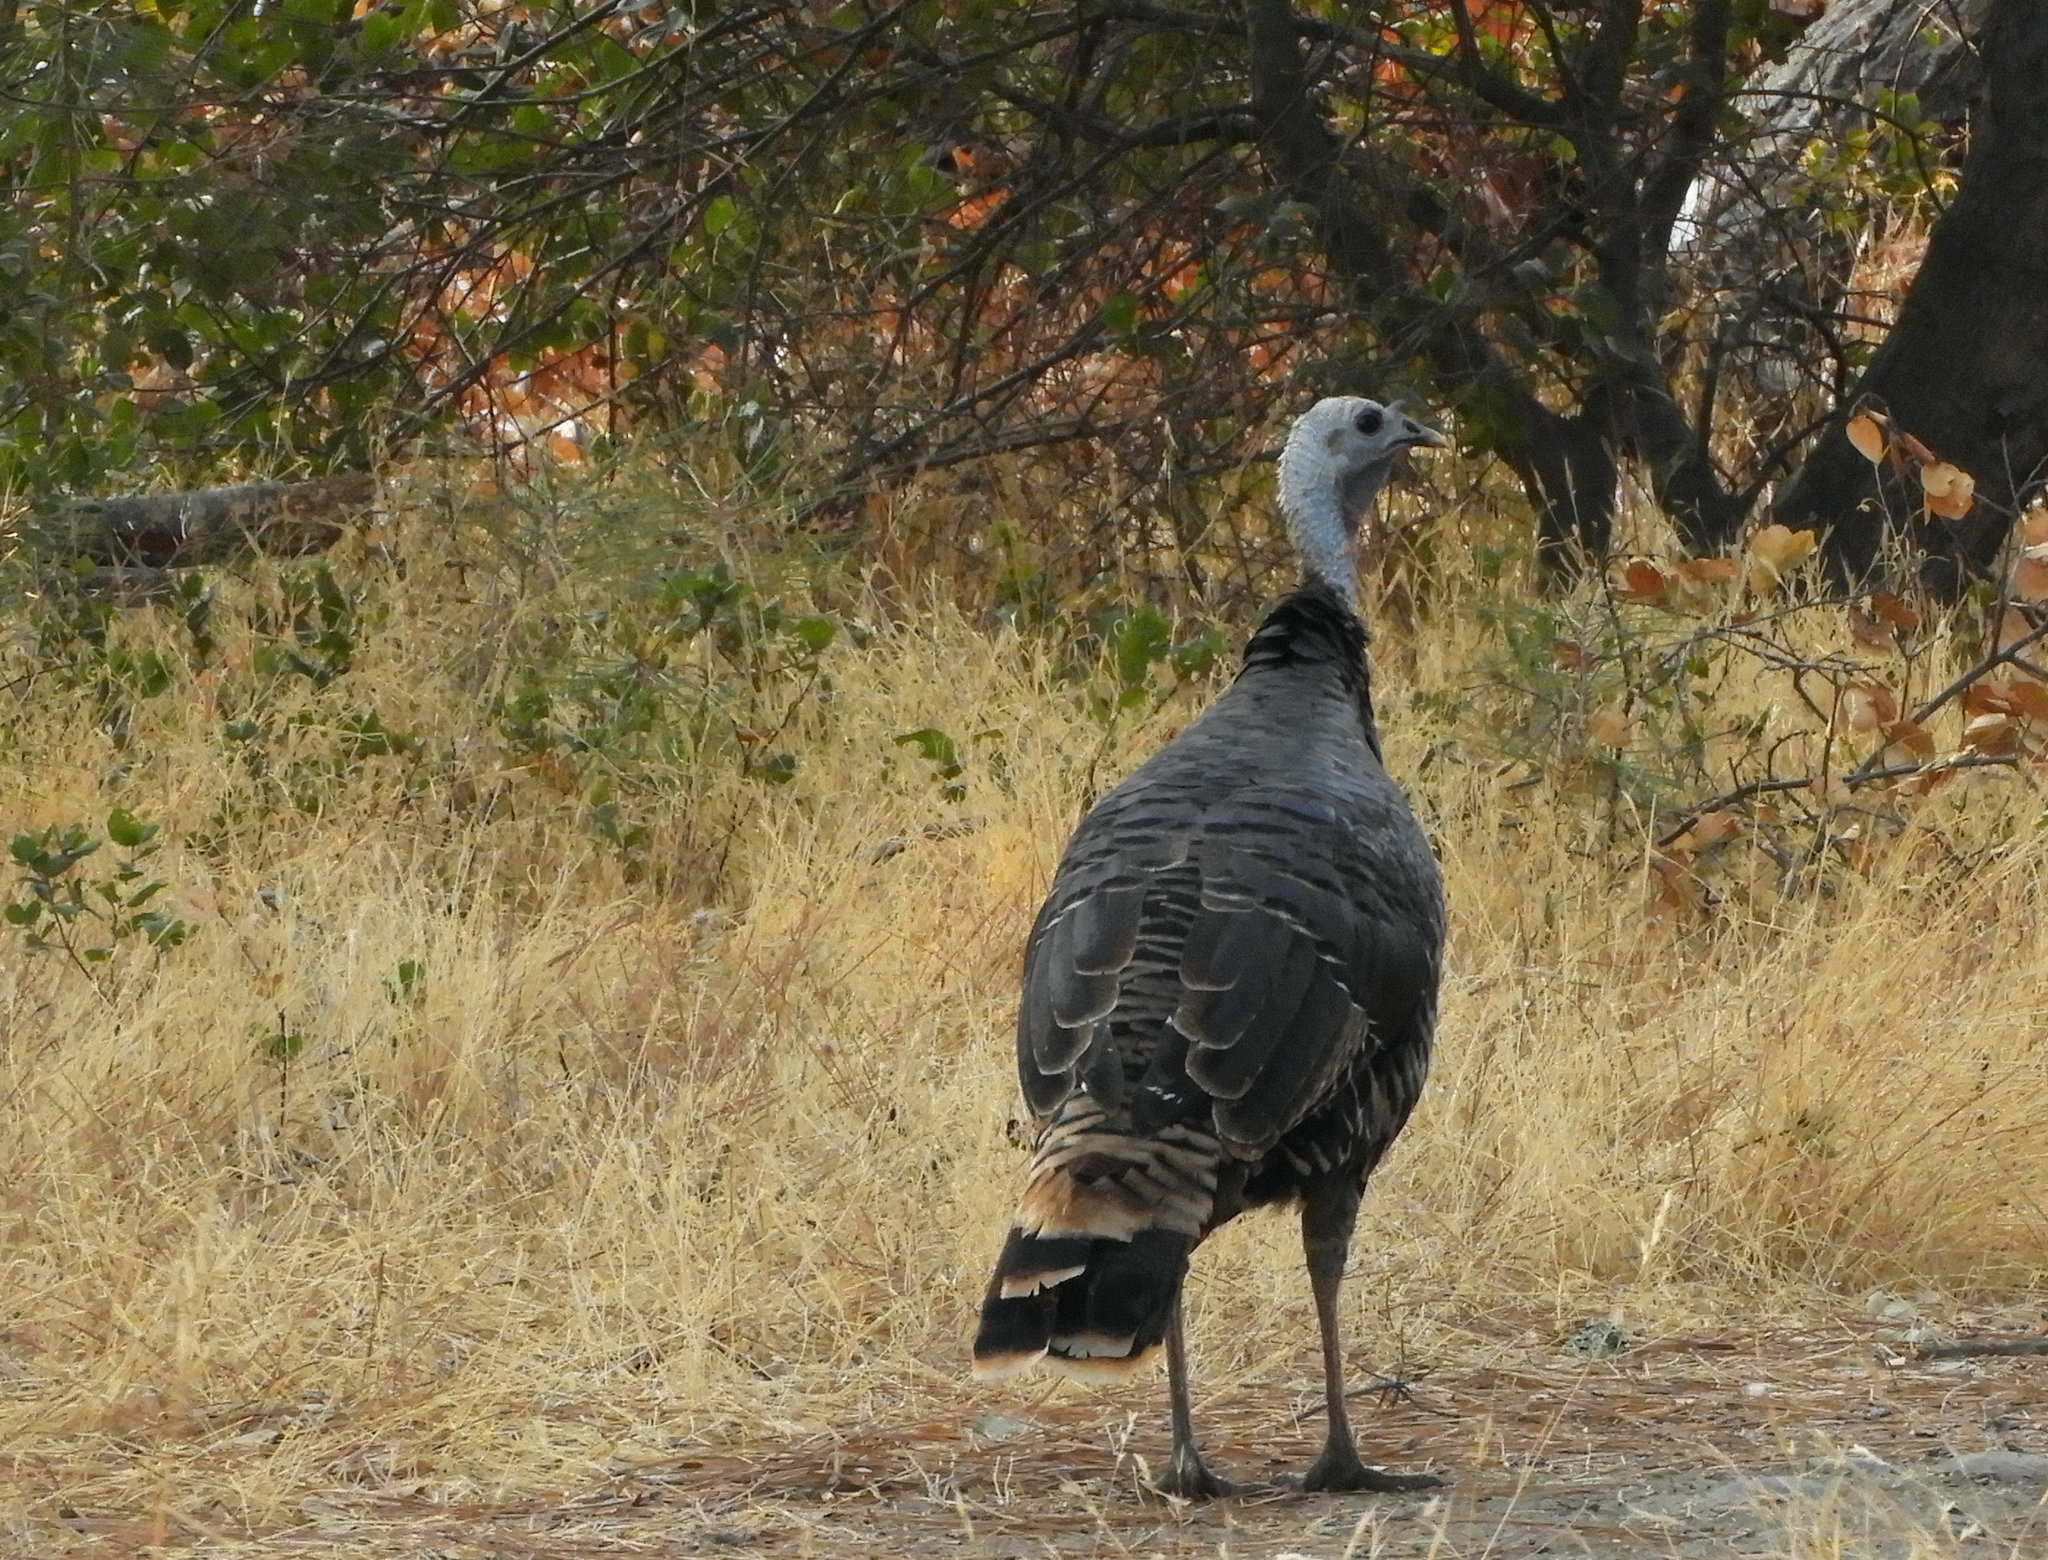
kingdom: Animalia
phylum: Chordata
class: Aves
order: Galliformes
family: Phasianidae
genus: Meleagris
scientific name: Meleagris gallopavo
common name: Wild turkey
